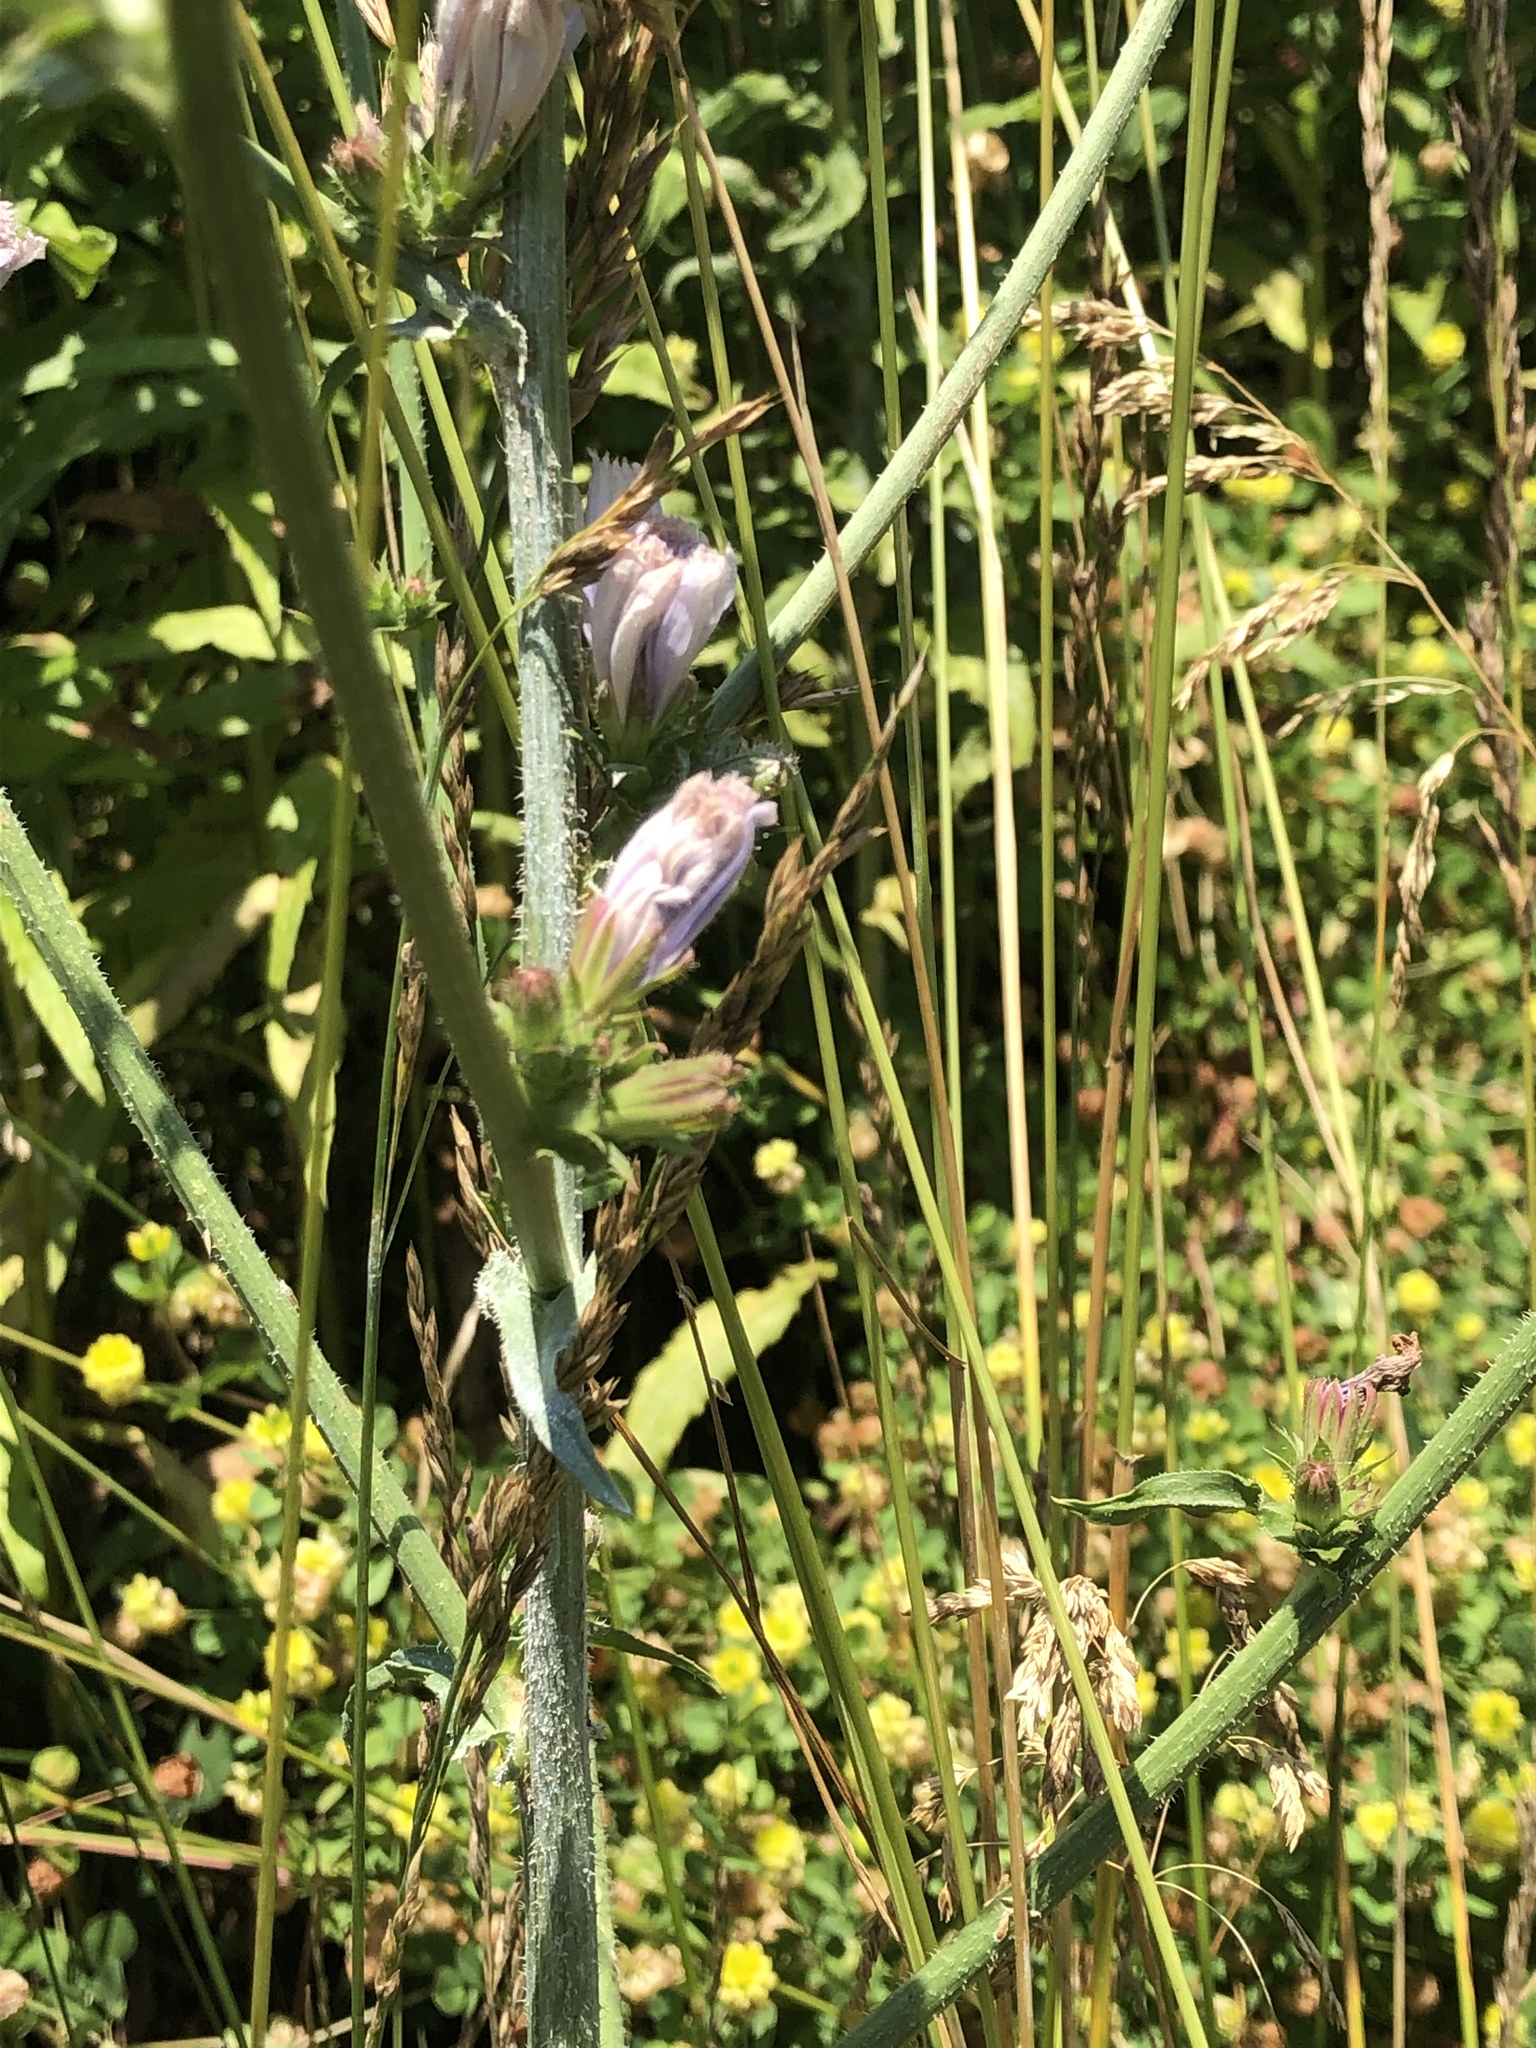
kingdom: Plantae
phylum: Tracheophyta
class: Magnoliopsida
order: Asterales
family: Asteraceae
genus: Cichorium
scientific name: Cichorium intybus
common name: Chicory
